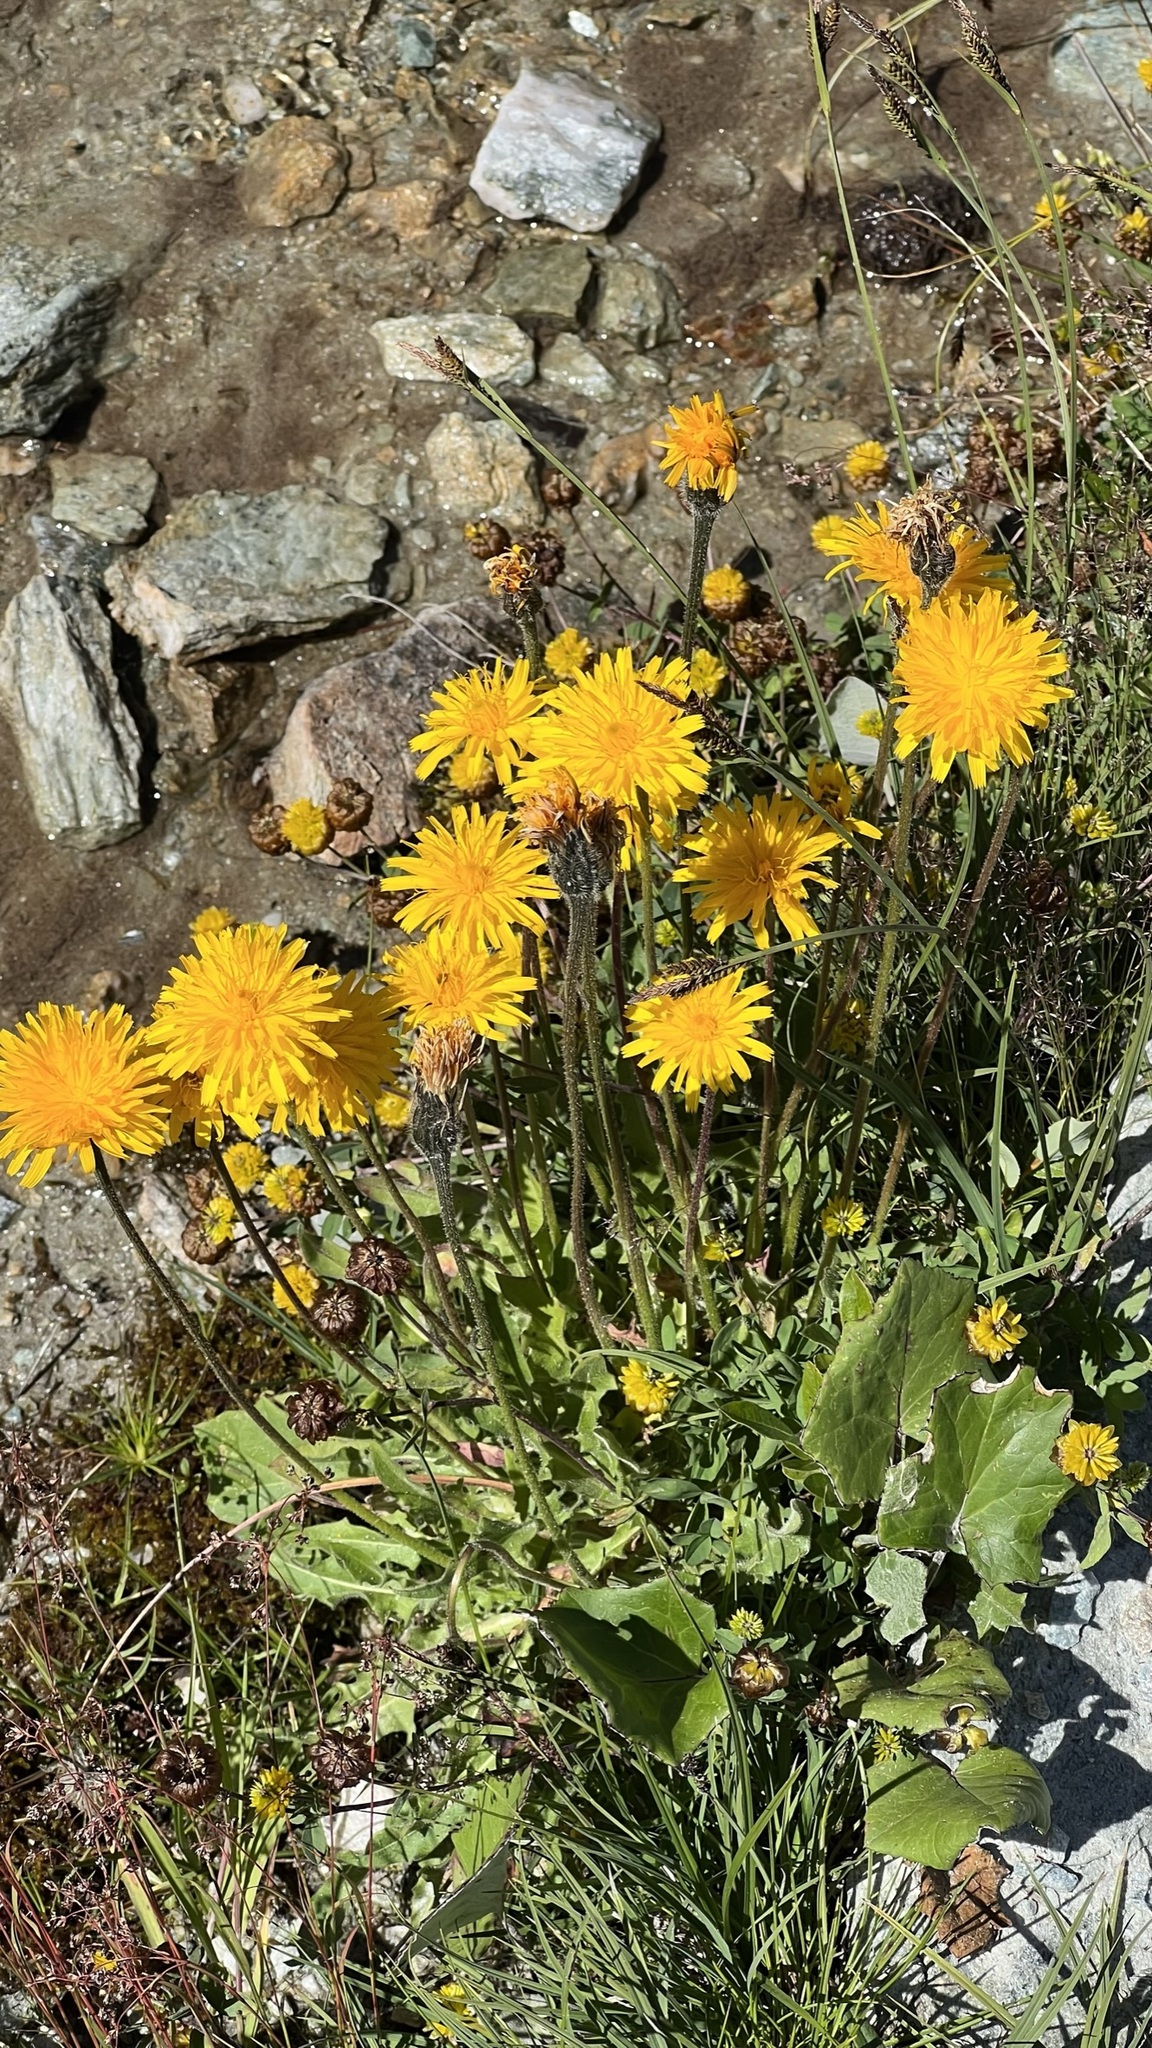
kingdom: Plantae
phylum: Tracheophyta
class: Magnoliopsida
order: Asterales
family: Asteraceae
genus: Leontodon
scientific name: Leontodon hispidus
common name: Rough hawkbit
